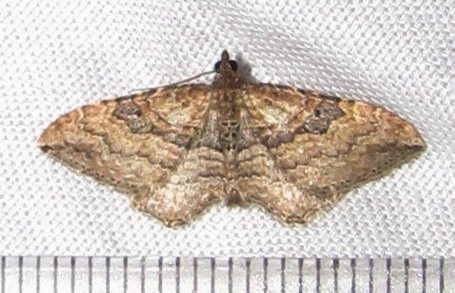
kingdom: Animalia
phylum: Arthropoda
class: Insecta
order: Lepidoptera
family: Geometridae
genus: Orthonama
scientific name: Orthonama obstipata
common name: The gem
